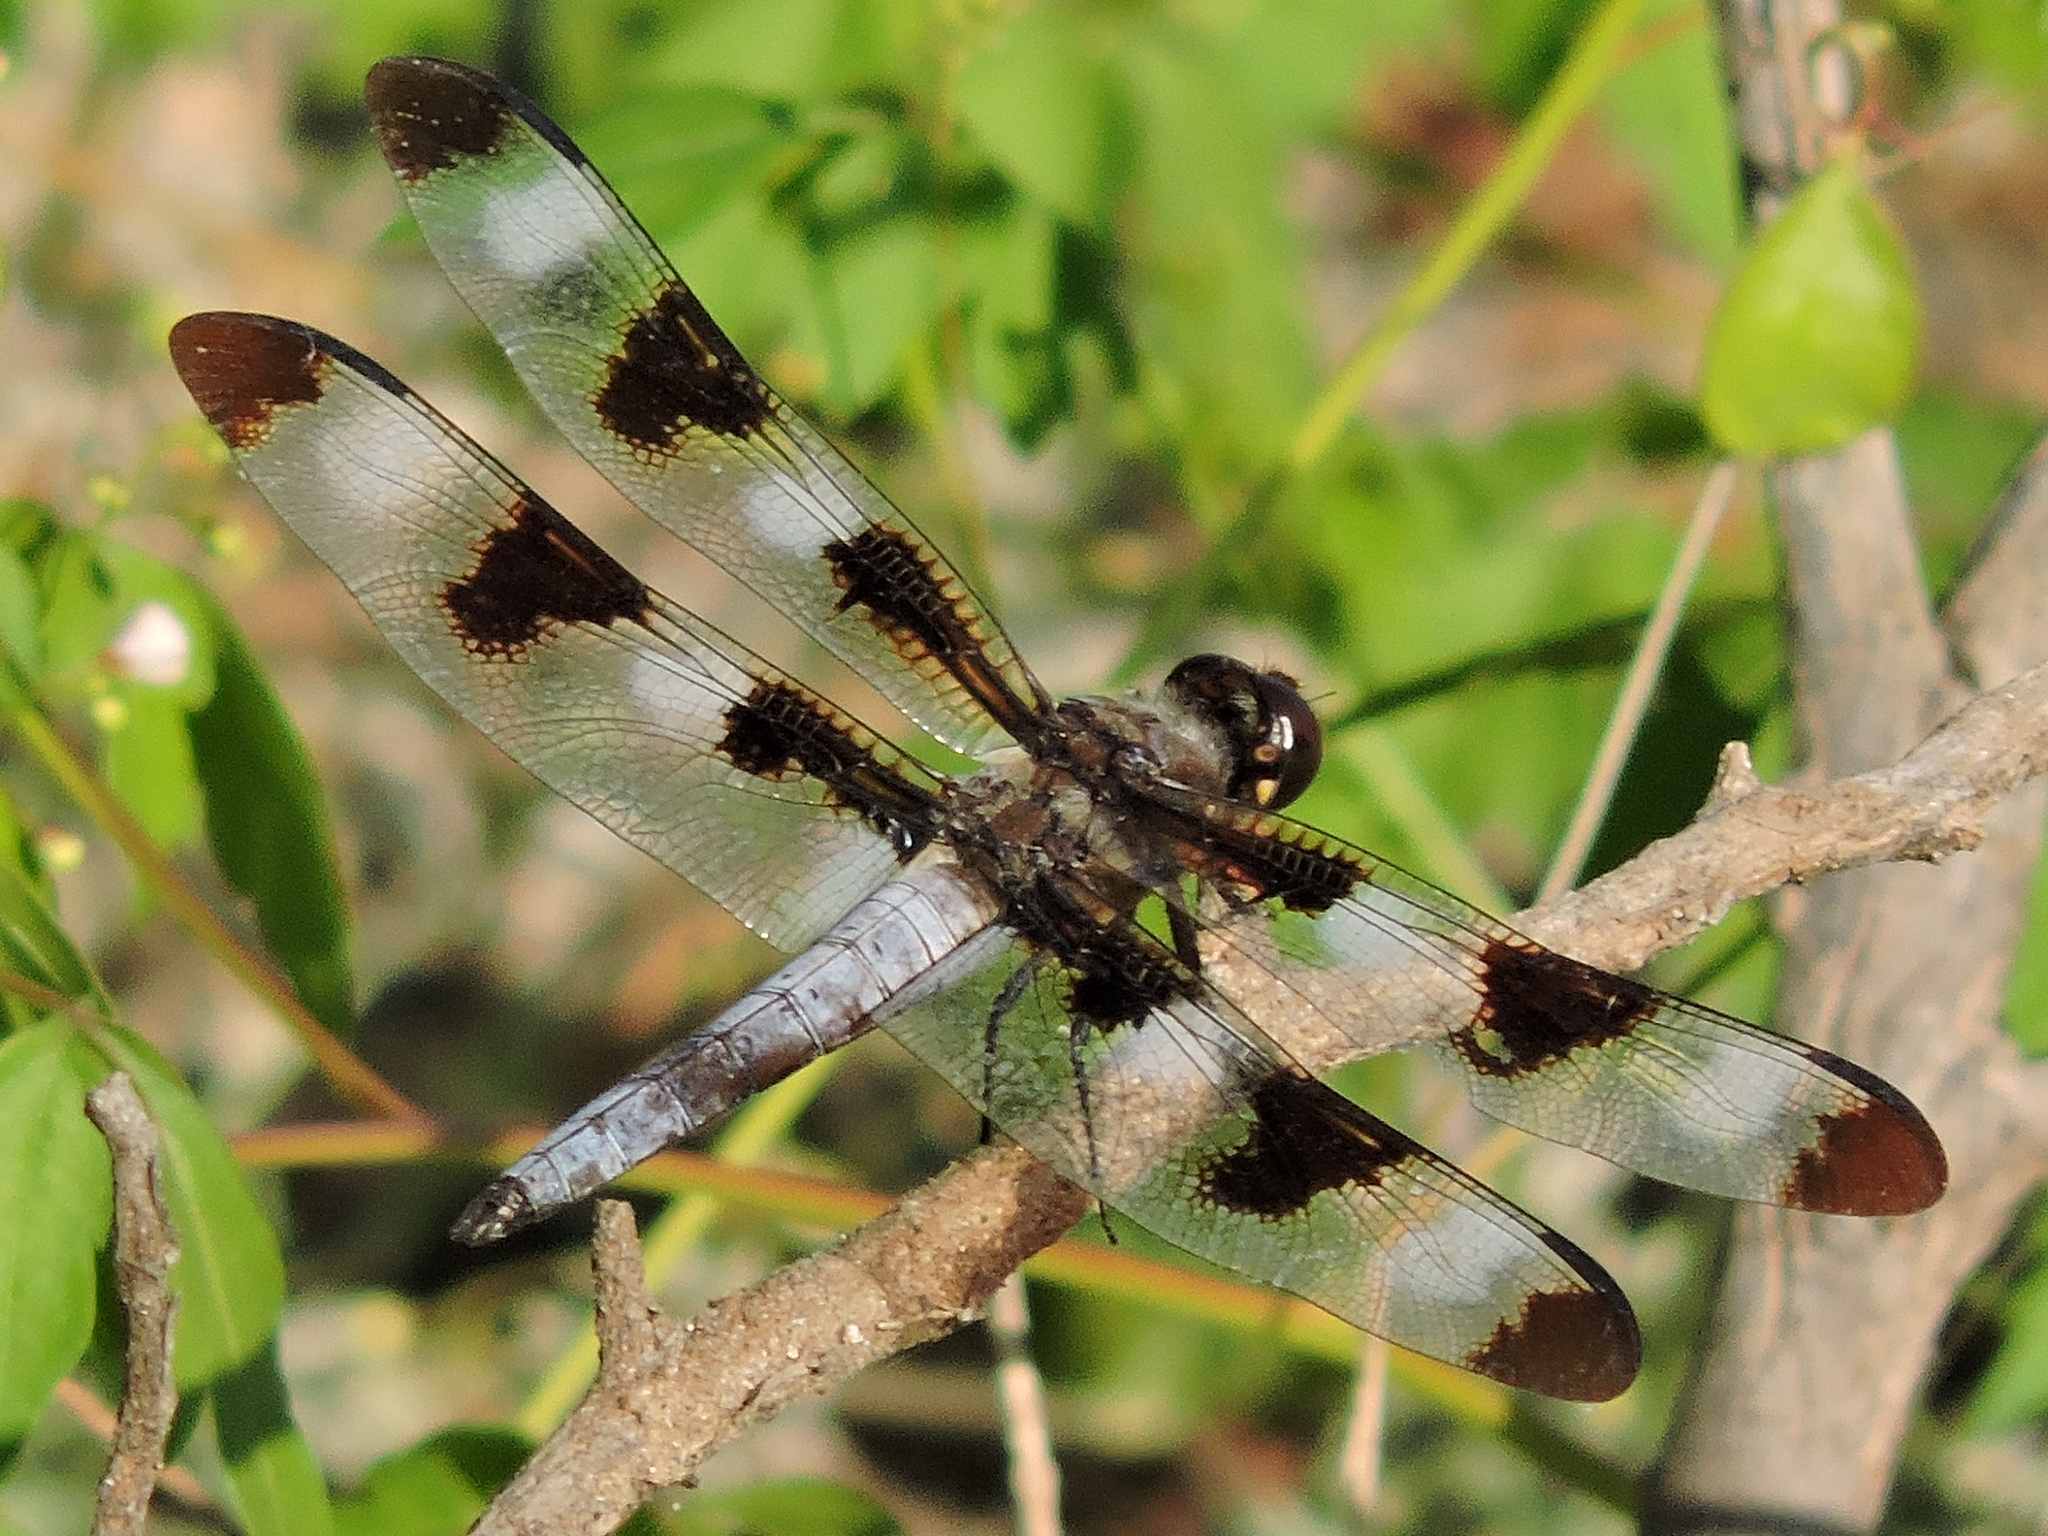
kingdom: Animalia
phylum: Arthropoda
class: Insecta
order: Odonata
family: Libellulidae
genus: Libellula
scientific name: Libellula pulchella
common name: Twelve-spotted skimmer
